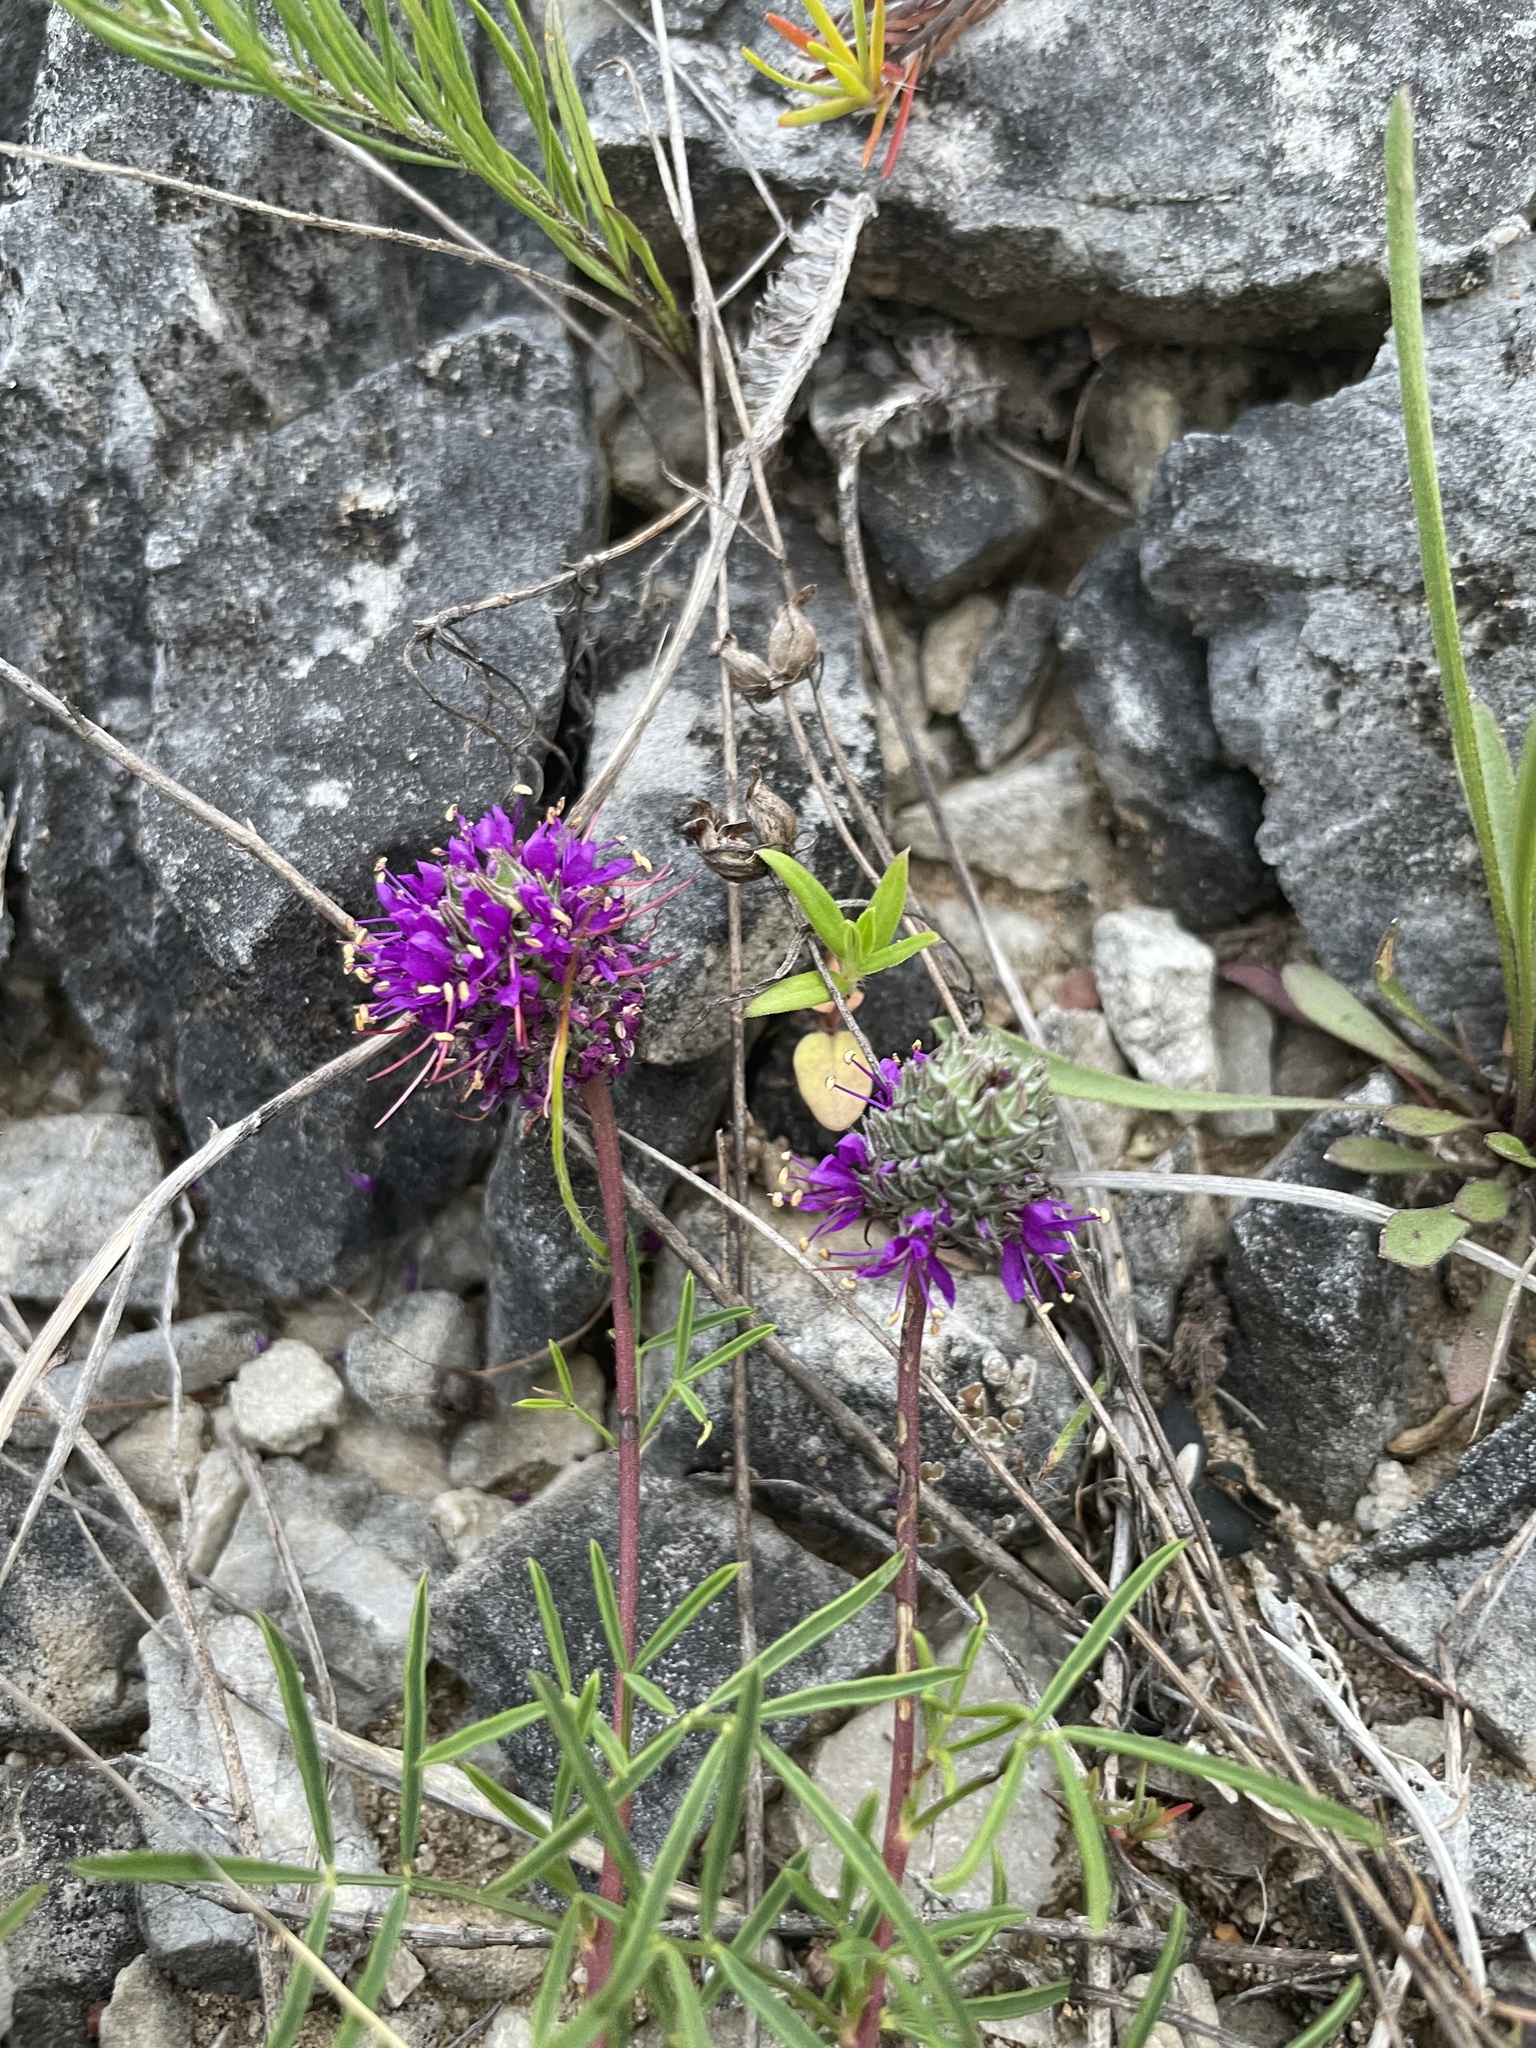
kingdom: Plantae
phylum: Tracheophyta
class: Magnoliopsida
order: Fabales
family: Fabaceae
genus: Dalea
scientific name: Dalea cahaba
